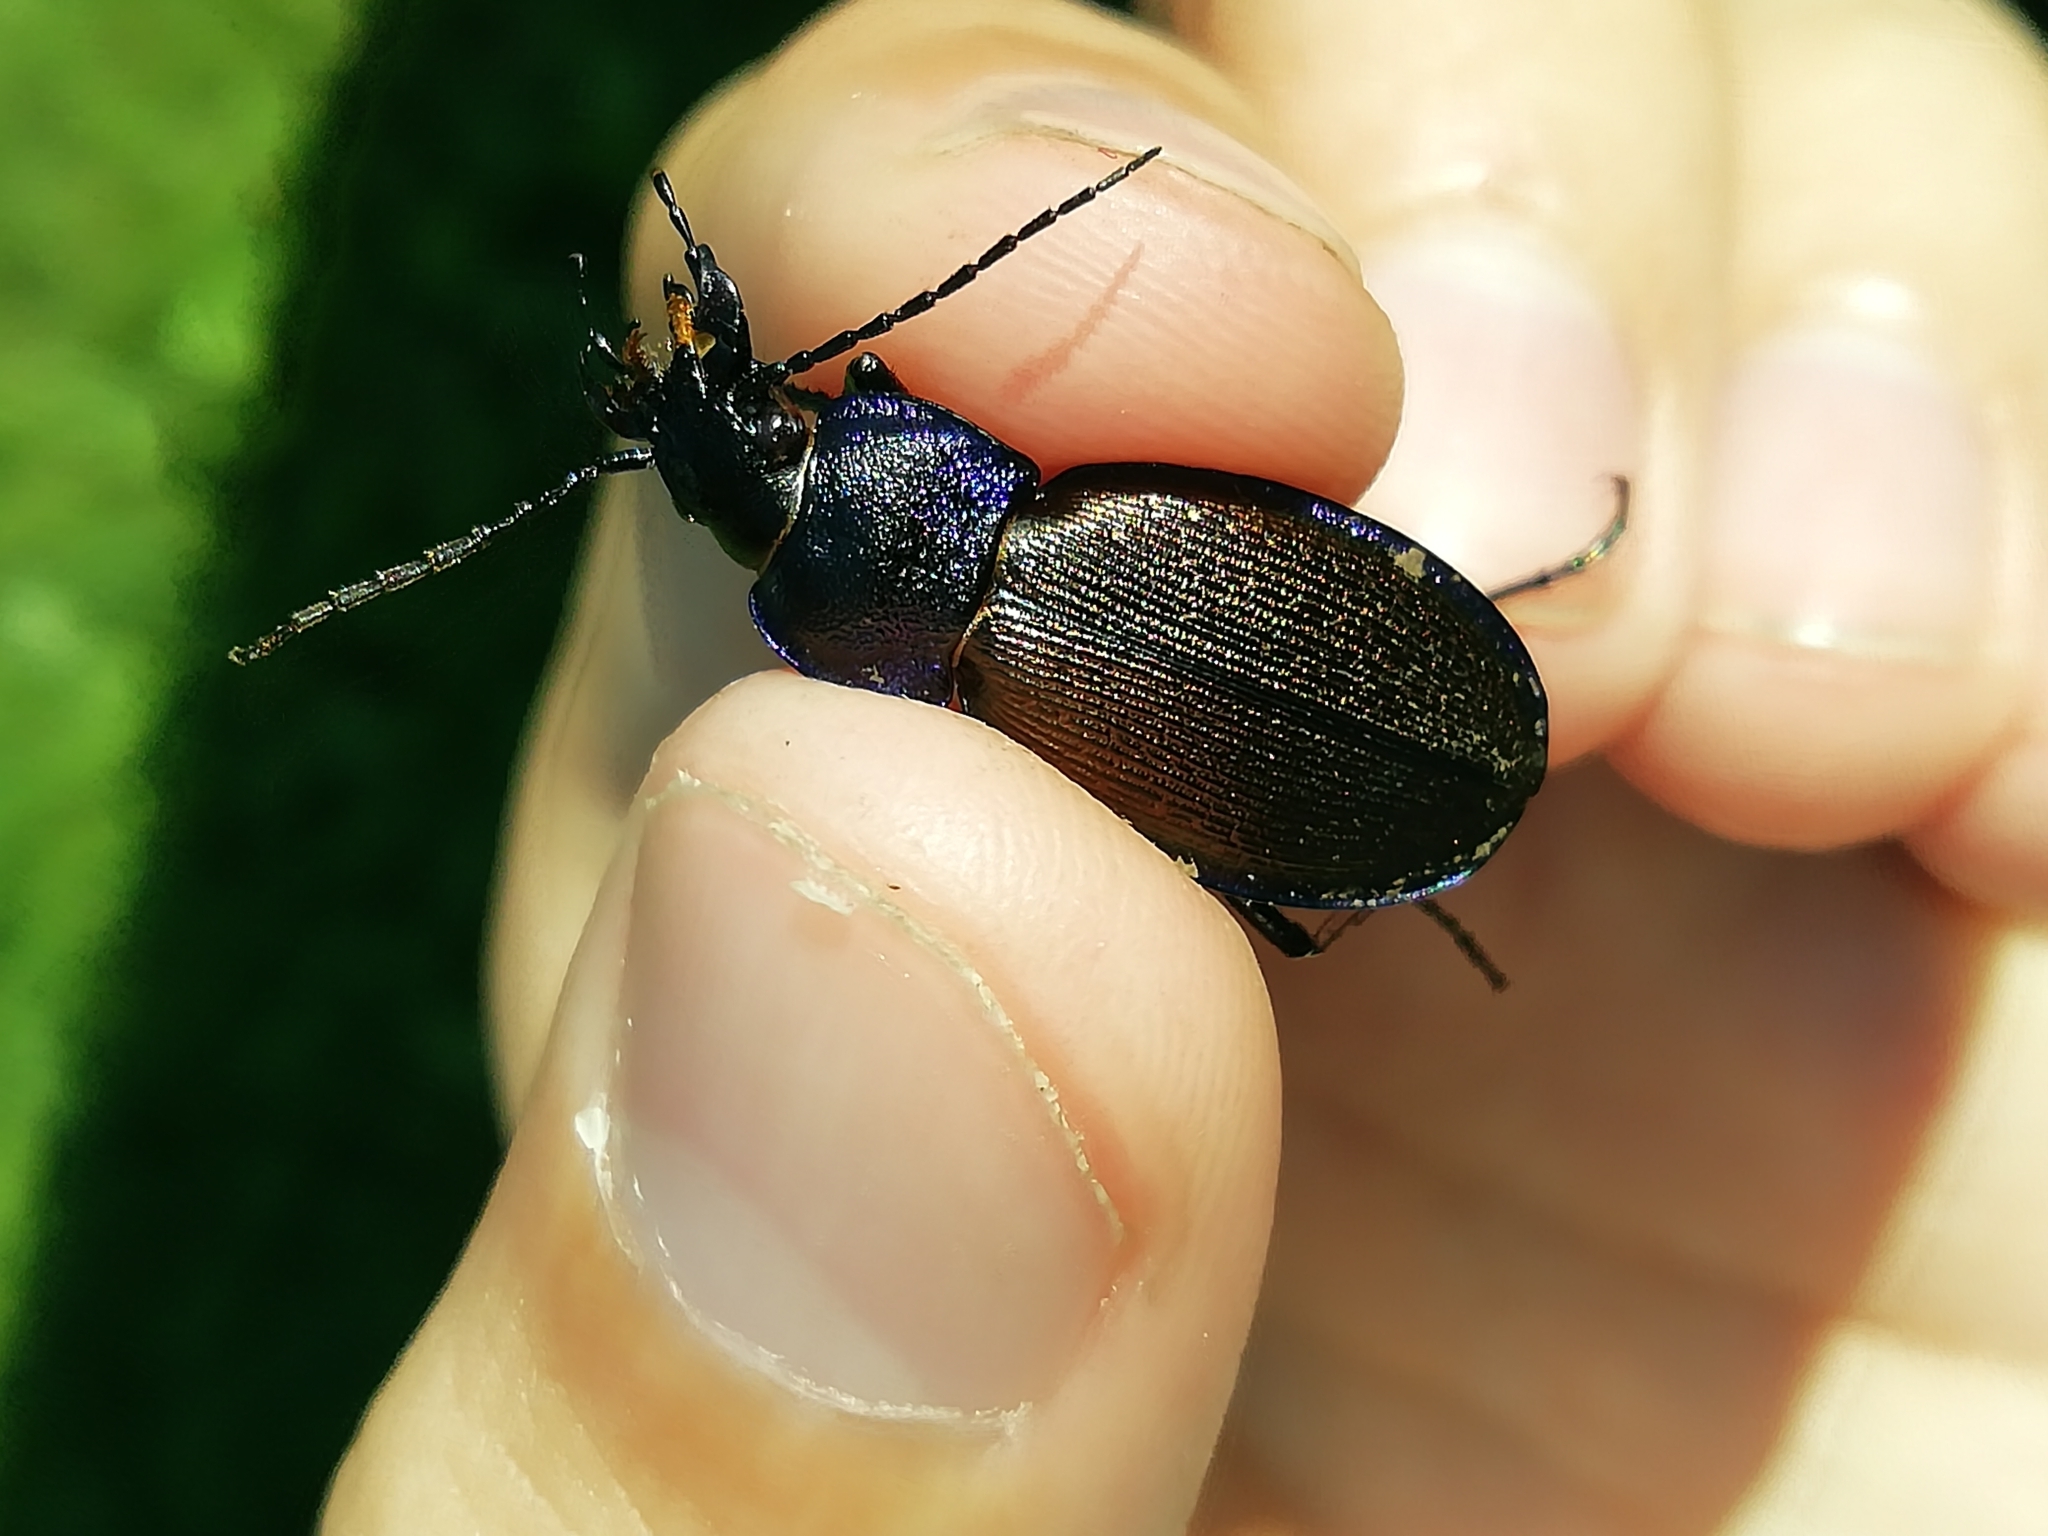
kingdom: Animalia
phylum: Arthropoda
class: Insecta
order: Coleoptera
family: Carabidae
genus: Carabus
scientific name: Carabus regalis
